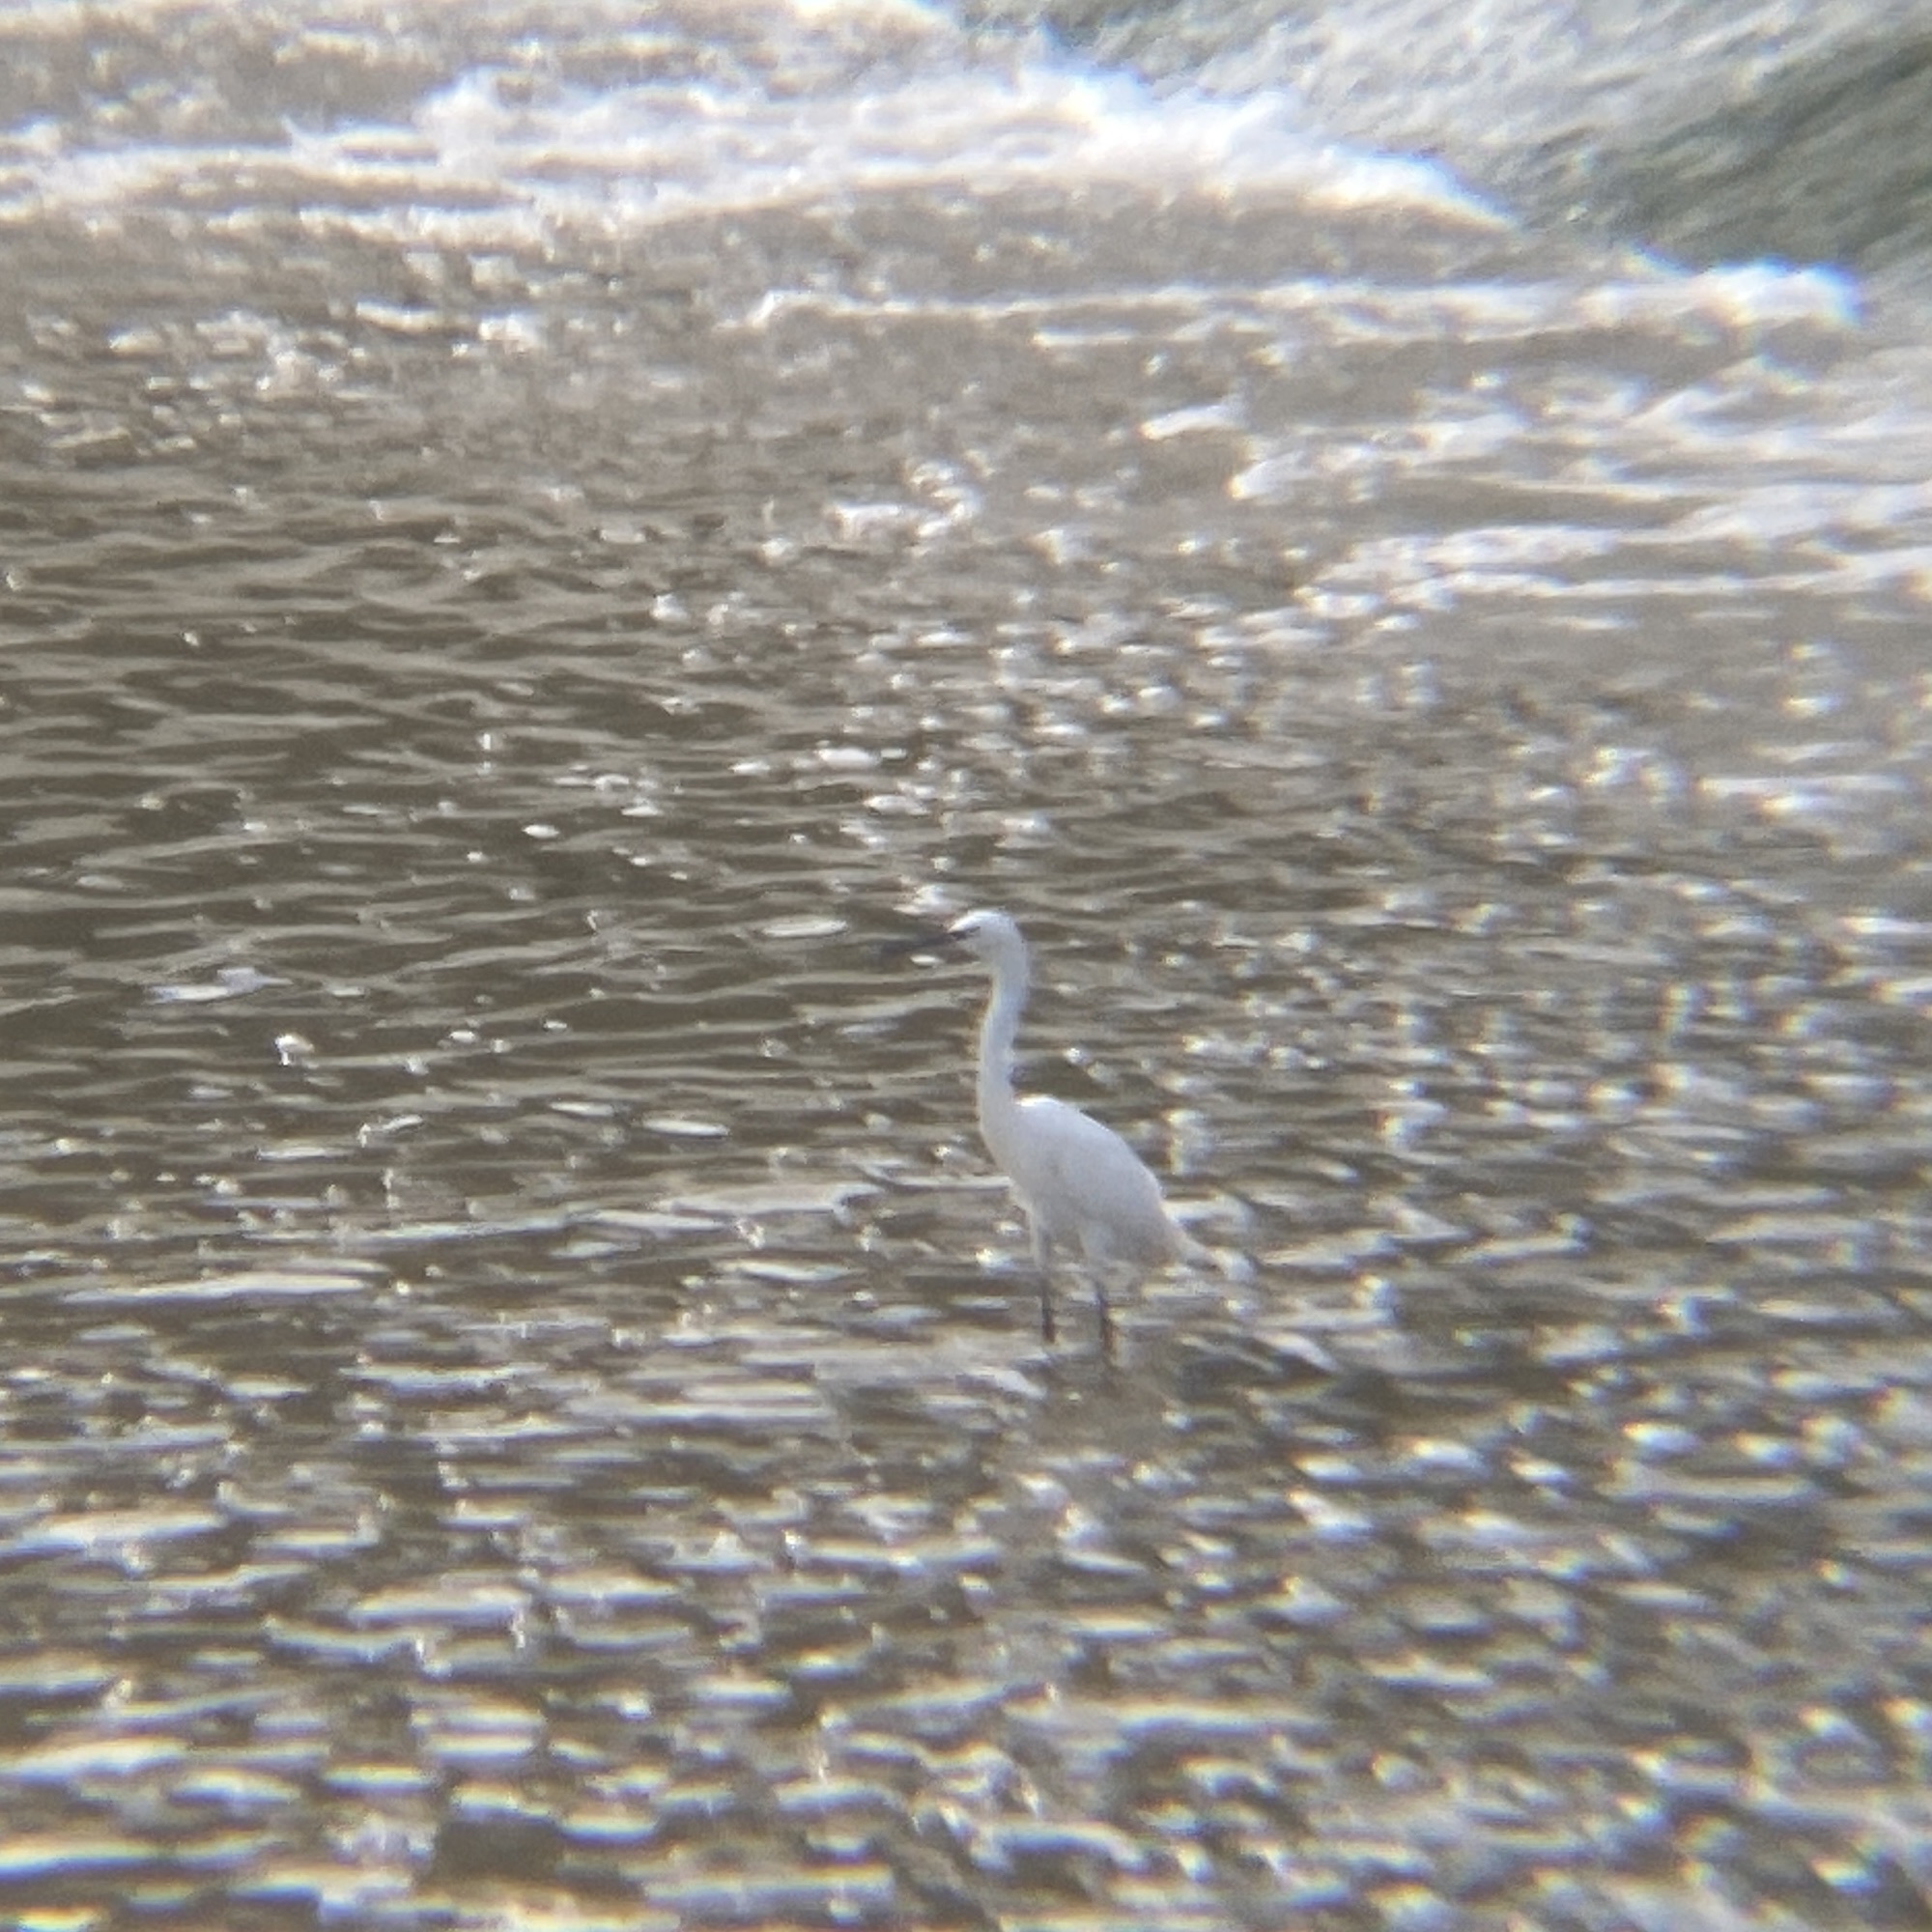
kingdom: Animalia
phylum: Chordata
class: Aves
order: Pelecaniformes
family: Ardeidae
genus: Egretta
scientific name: Egretta garzetta
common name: Little egret
